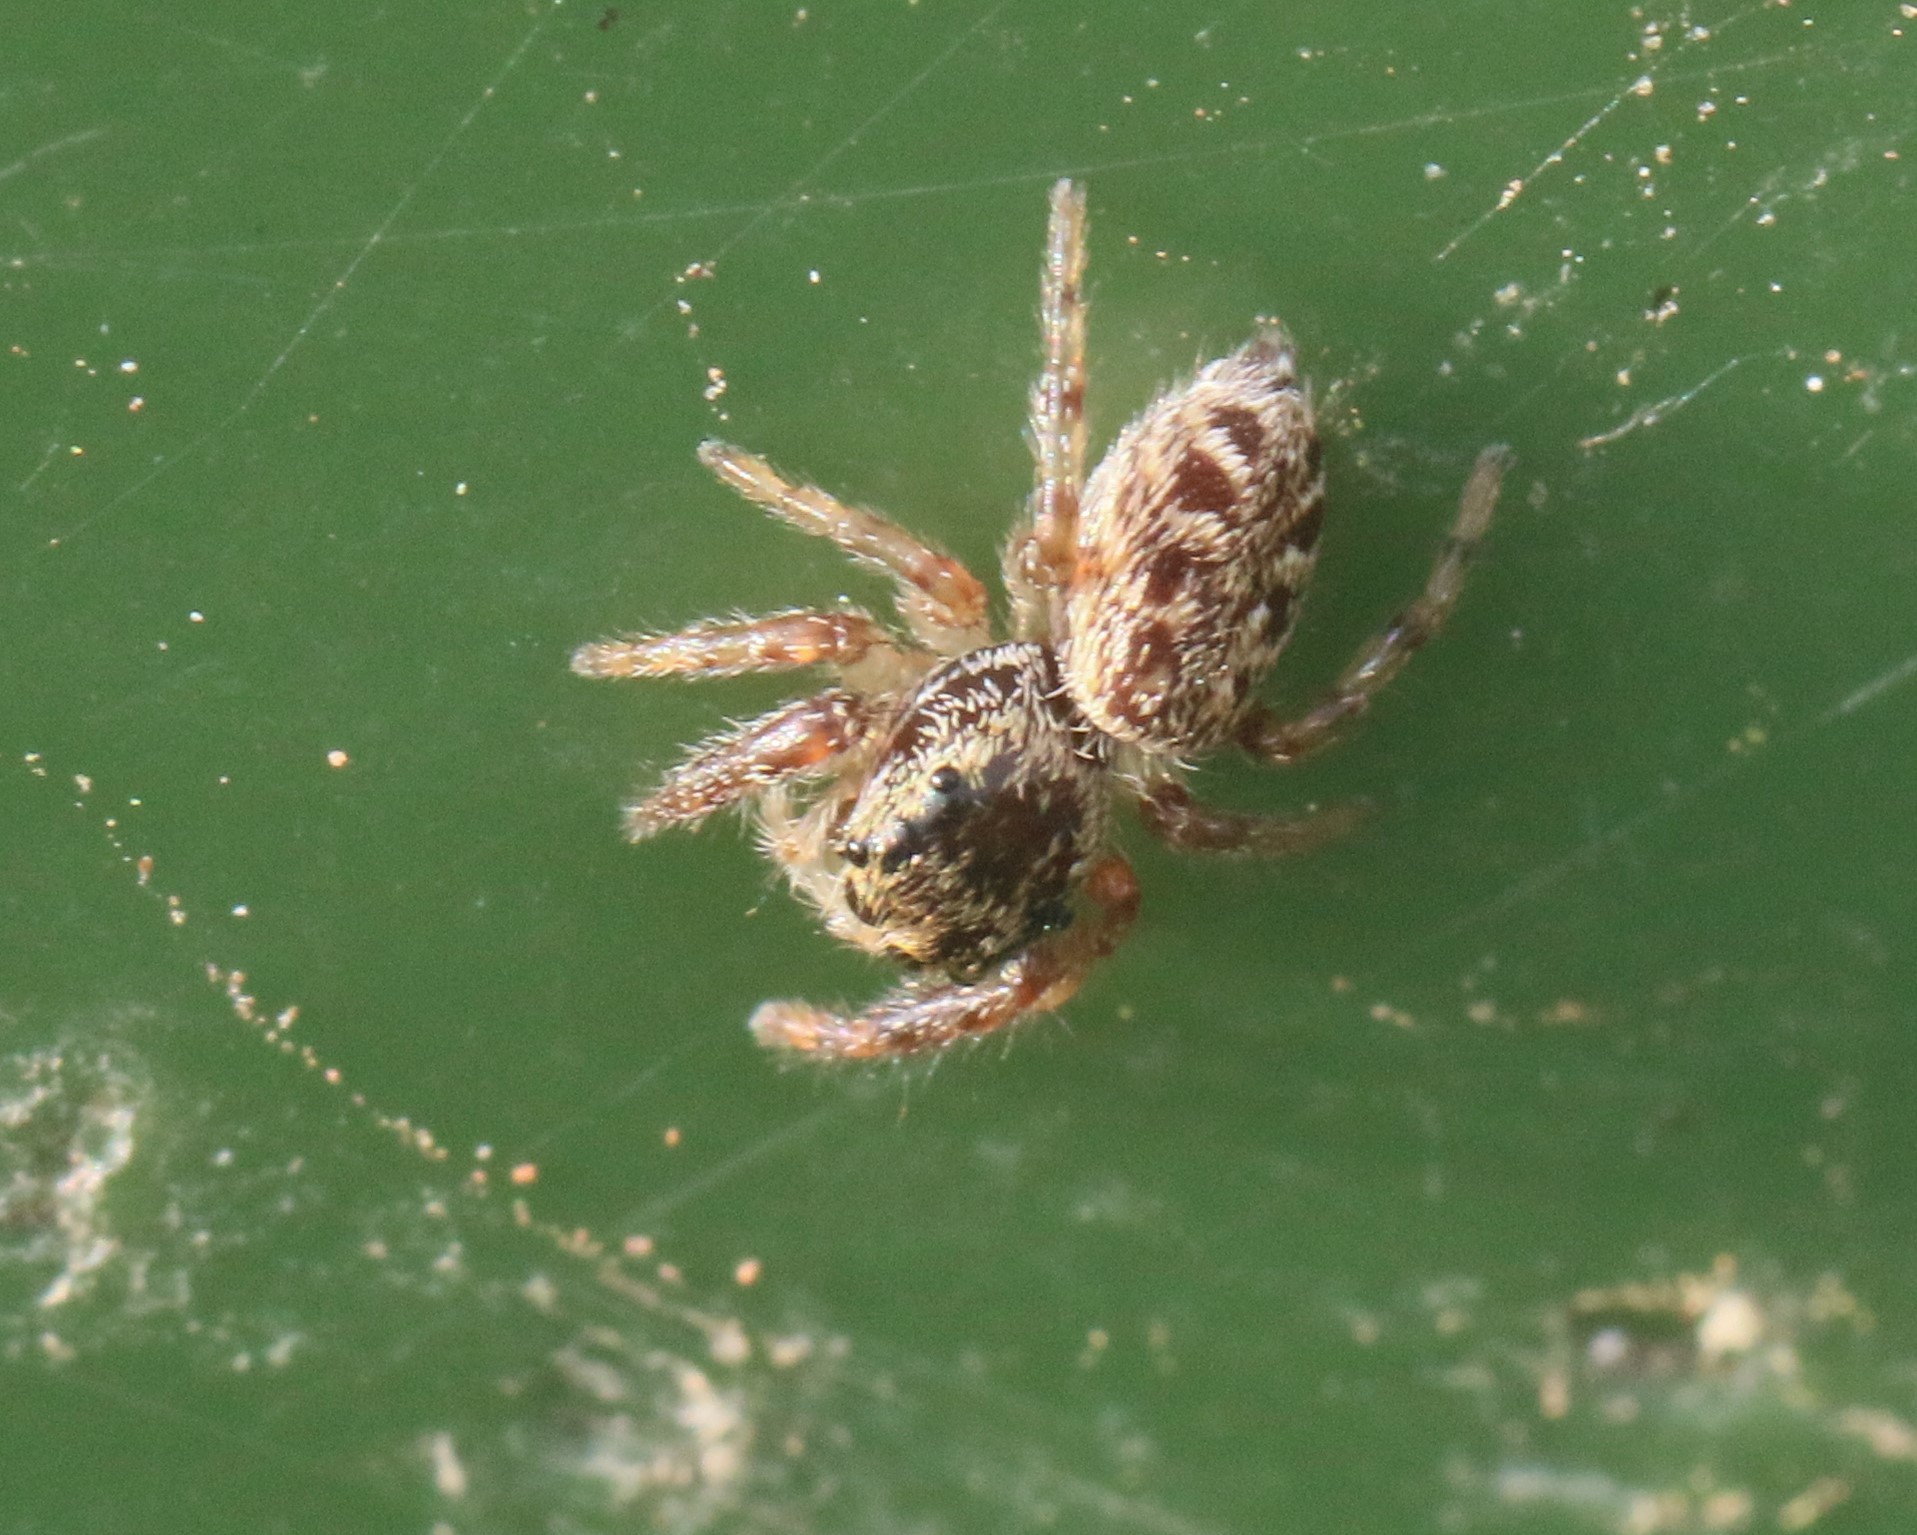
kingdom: Animalia
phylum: Arthropoda
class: Arachnida
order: Araneae
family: Salticidae
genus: Eris
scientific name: Eris militaris
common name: Bronze jumper
